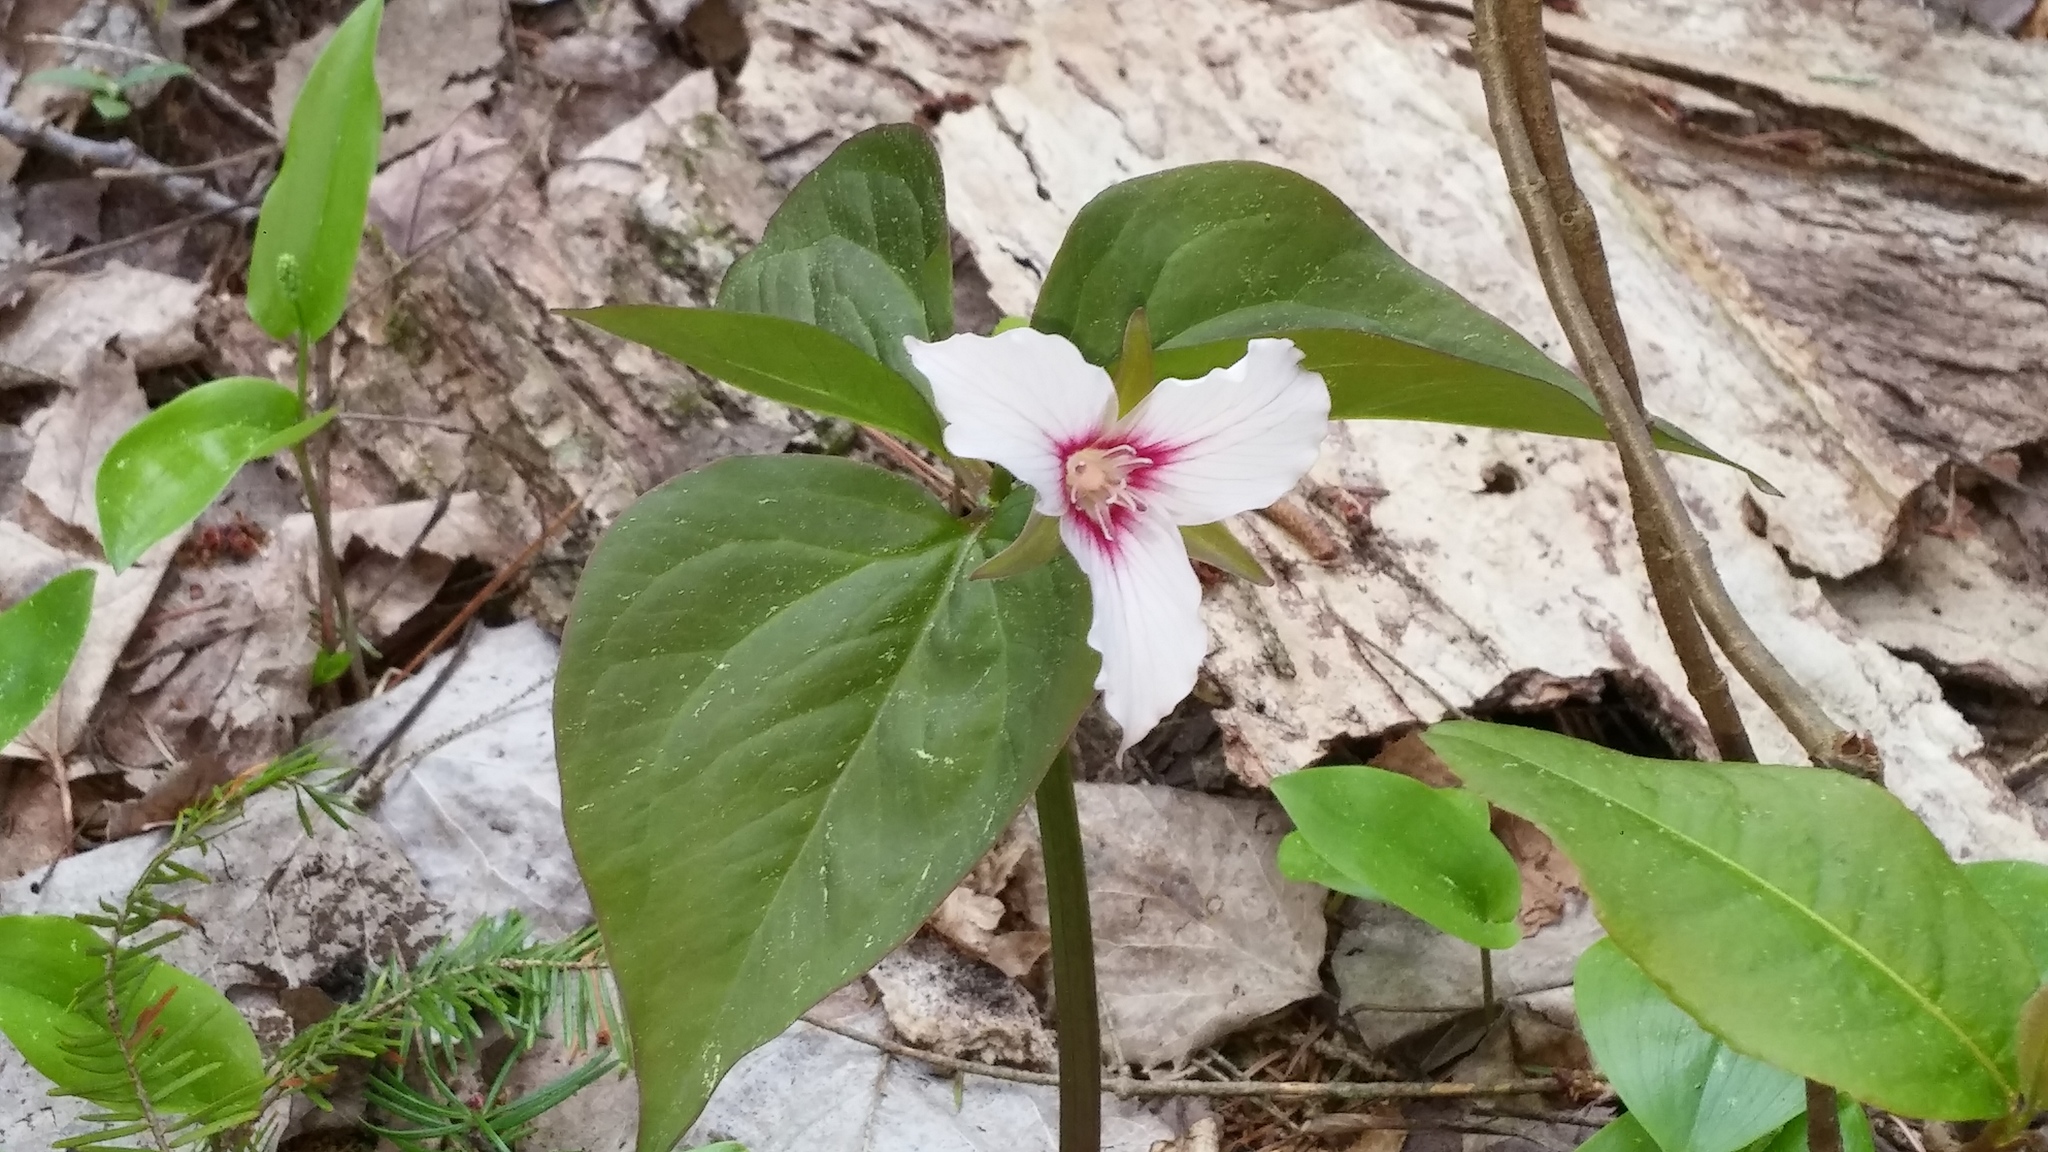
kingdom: Plantae
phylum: Tracheophyta
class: Liliopsida
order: Liliales
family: Melanthiaceae
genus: Trillium
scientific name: Trillium undulatum
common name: Paint trillium
